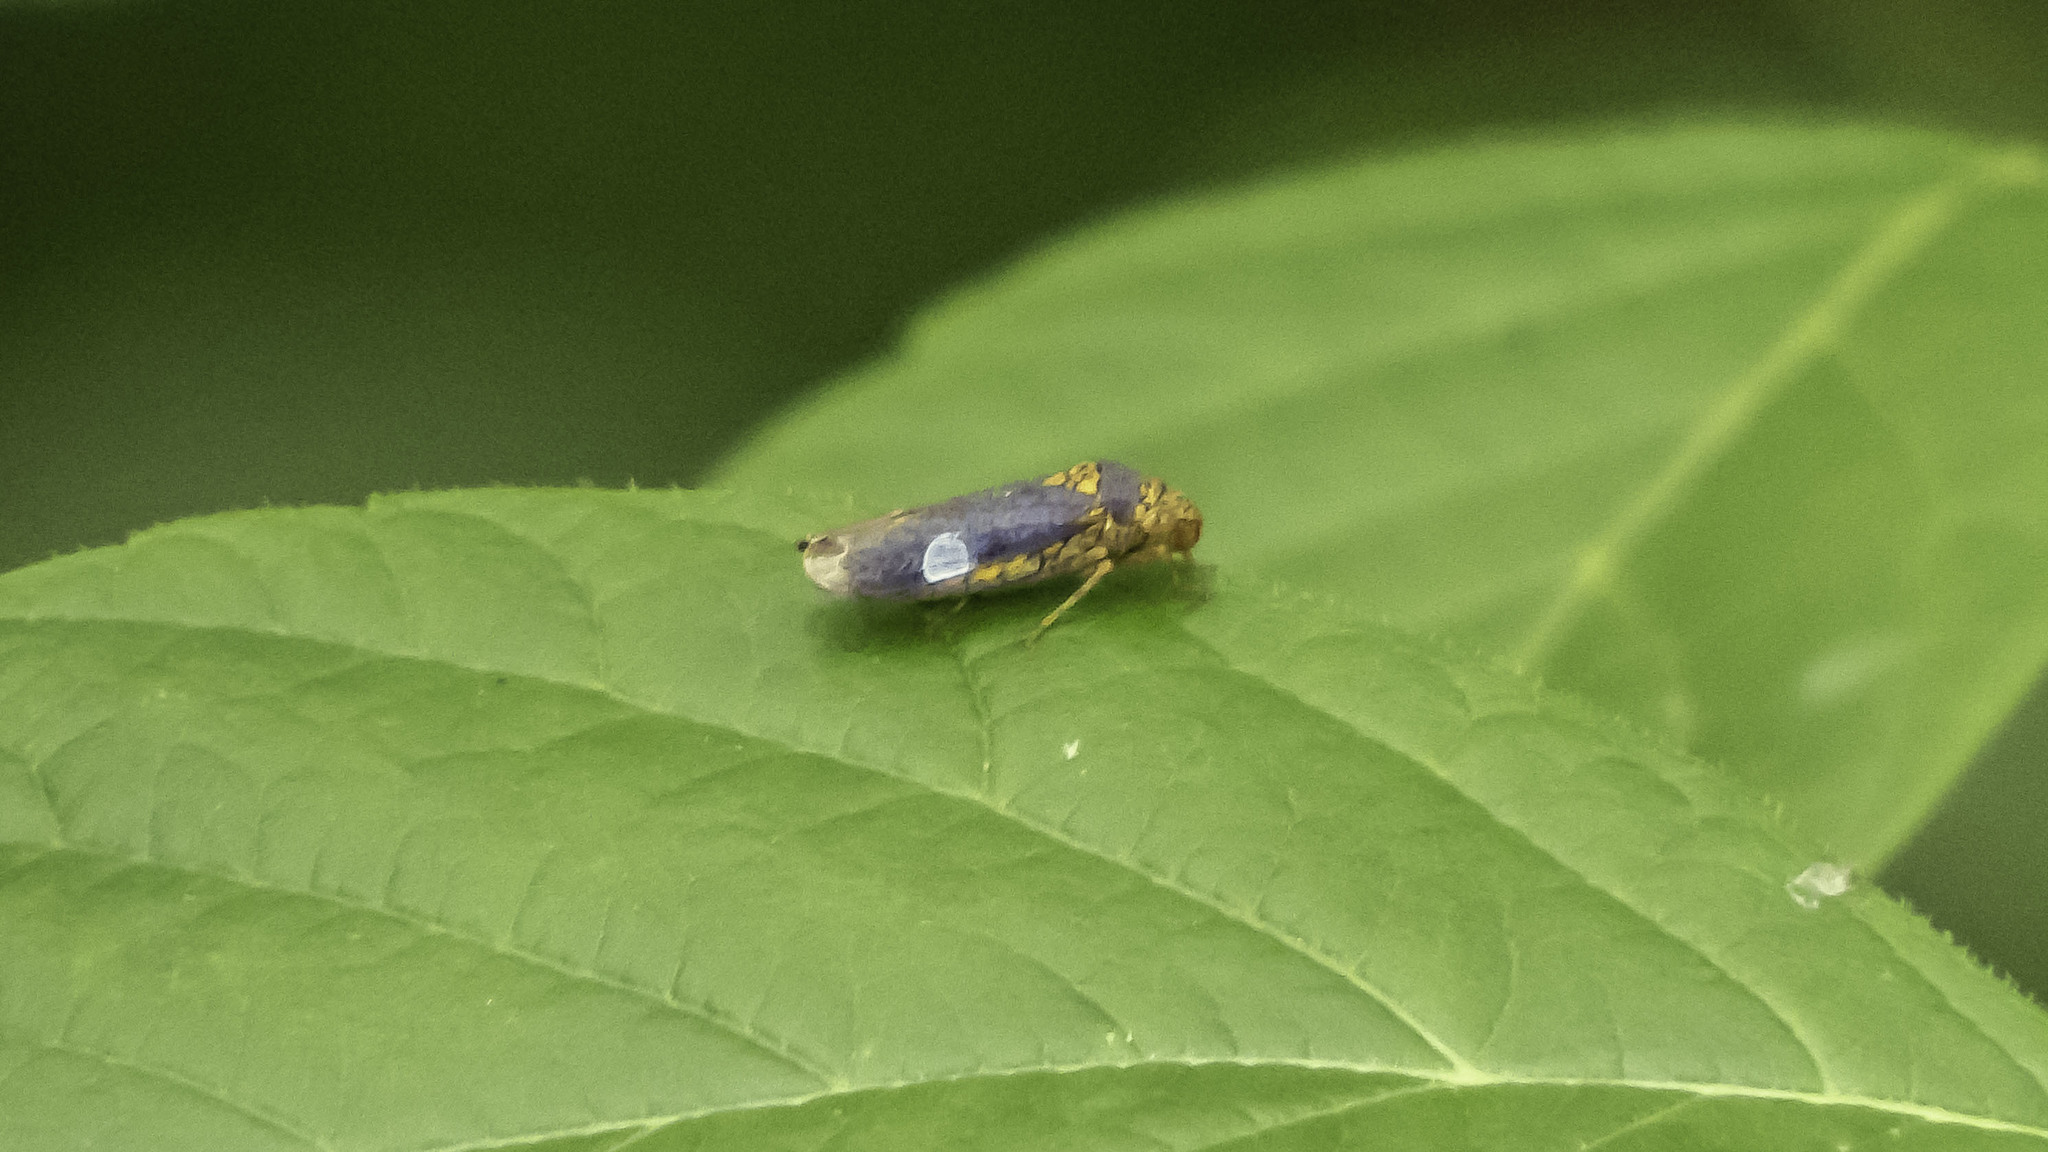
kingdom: Animalia
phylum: Arthropoda
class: Insecta
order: Hemiptera
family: Cicadellidae
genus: Oncometopia
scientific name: Oncometopia orbona
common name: Broad-headed sharpshooter
